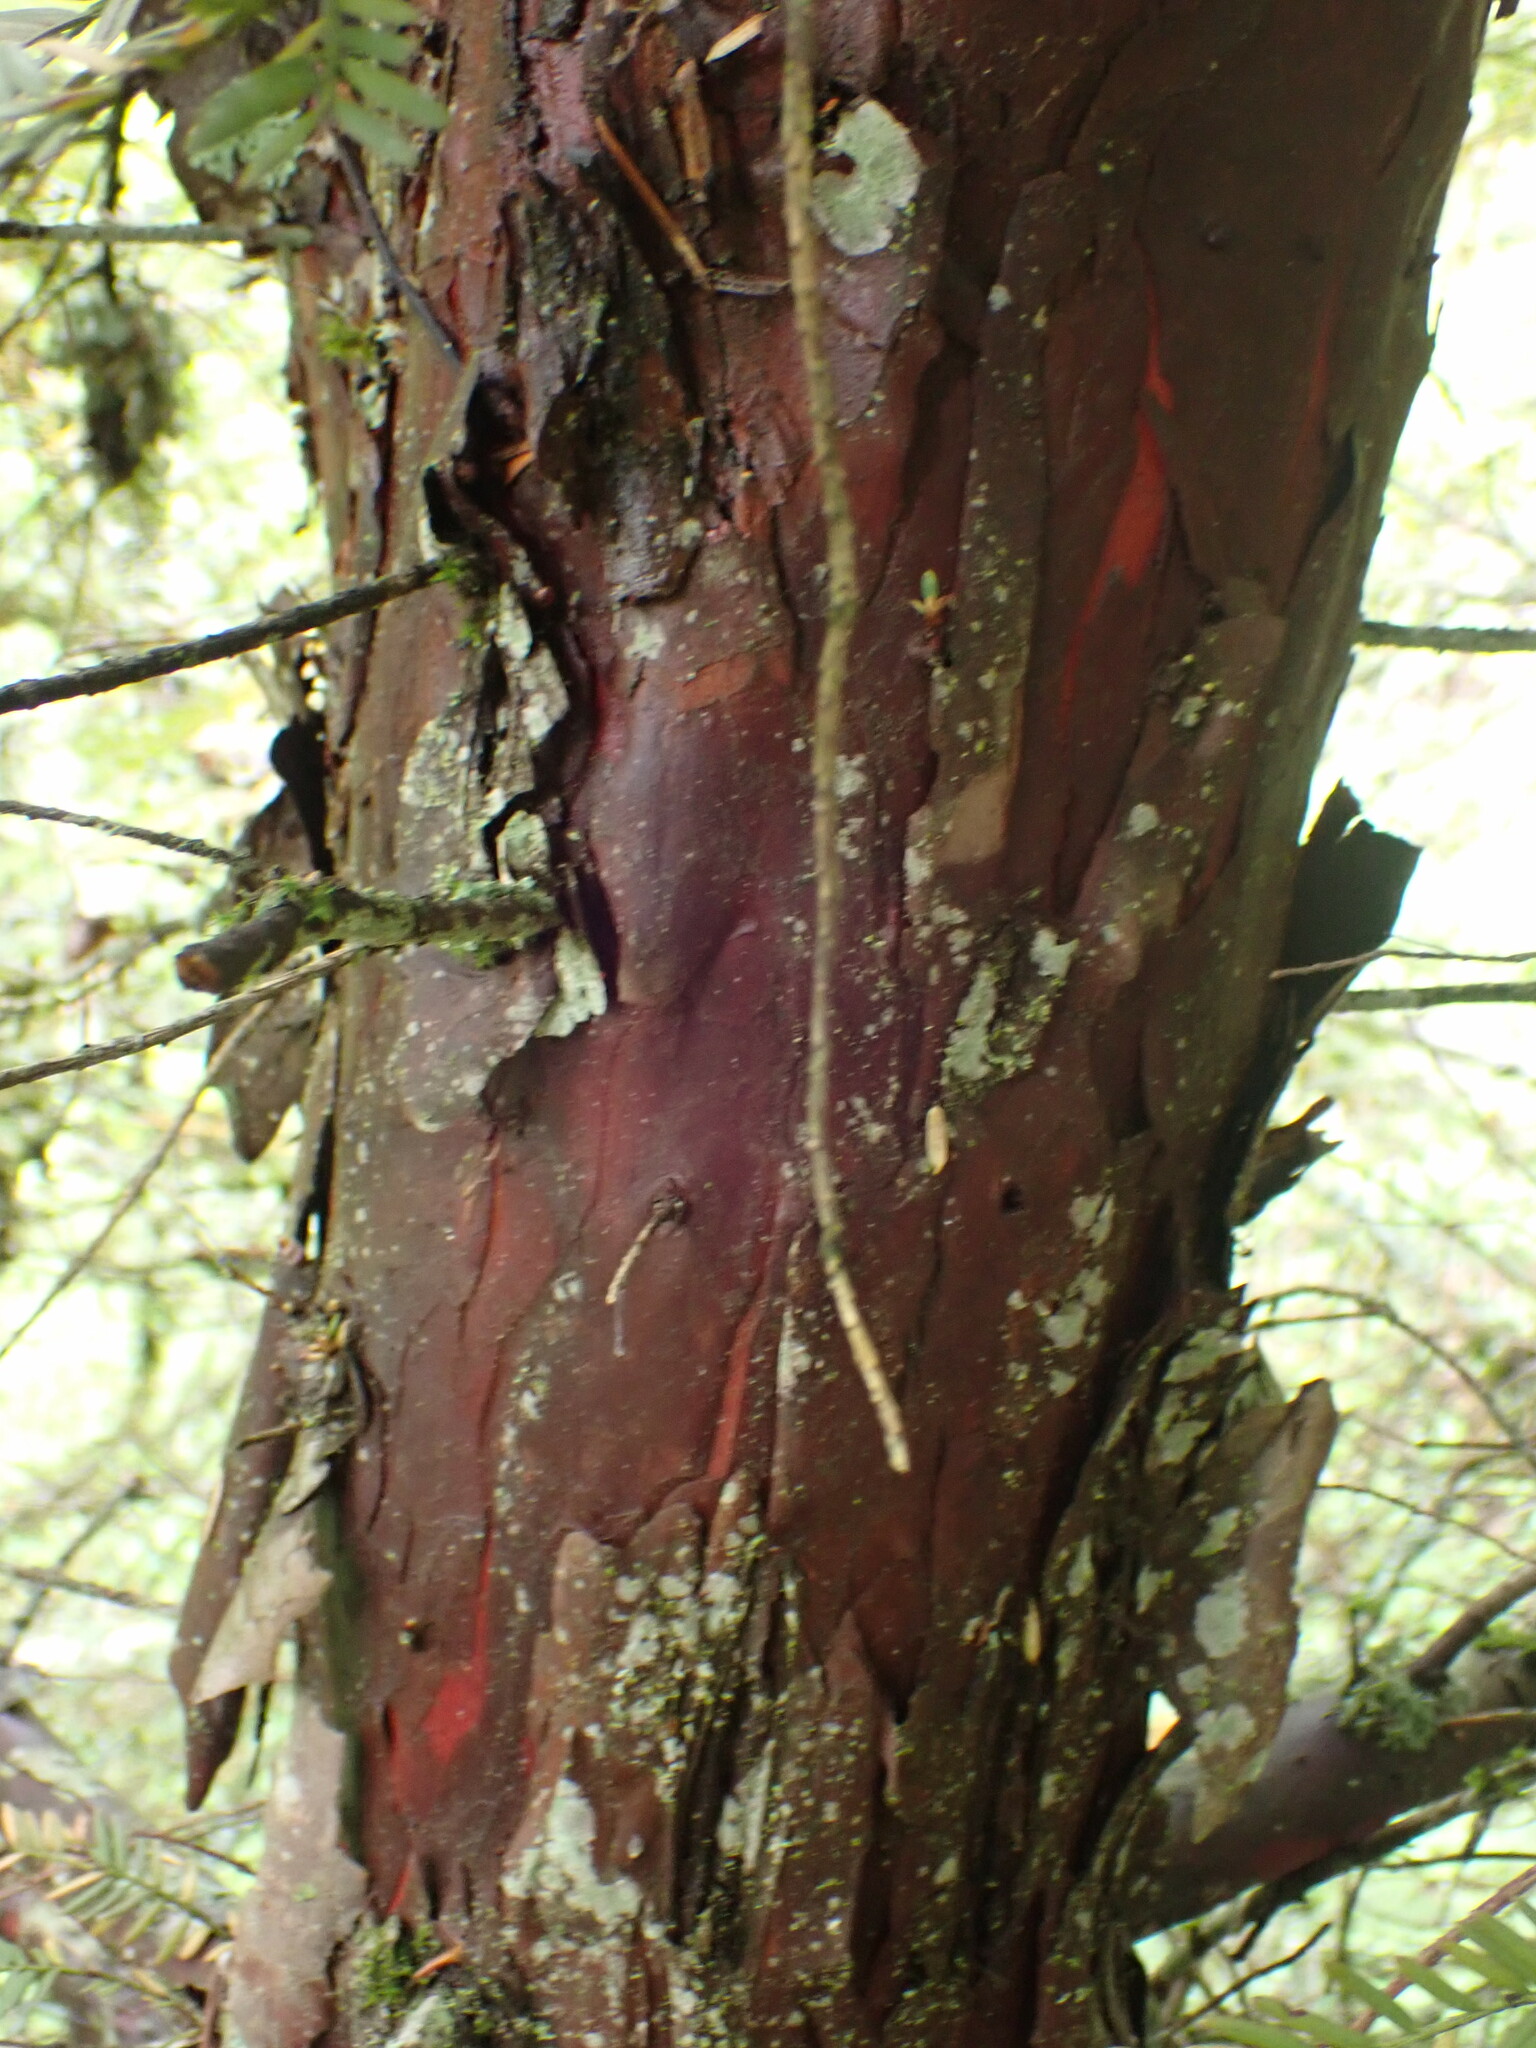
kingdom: Plantae
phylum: Tracheophyta
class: Pinopsida
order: Pinales
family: Taxaceae
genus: Taxus
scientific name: Taxus brevifolia
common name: Pacific yew
